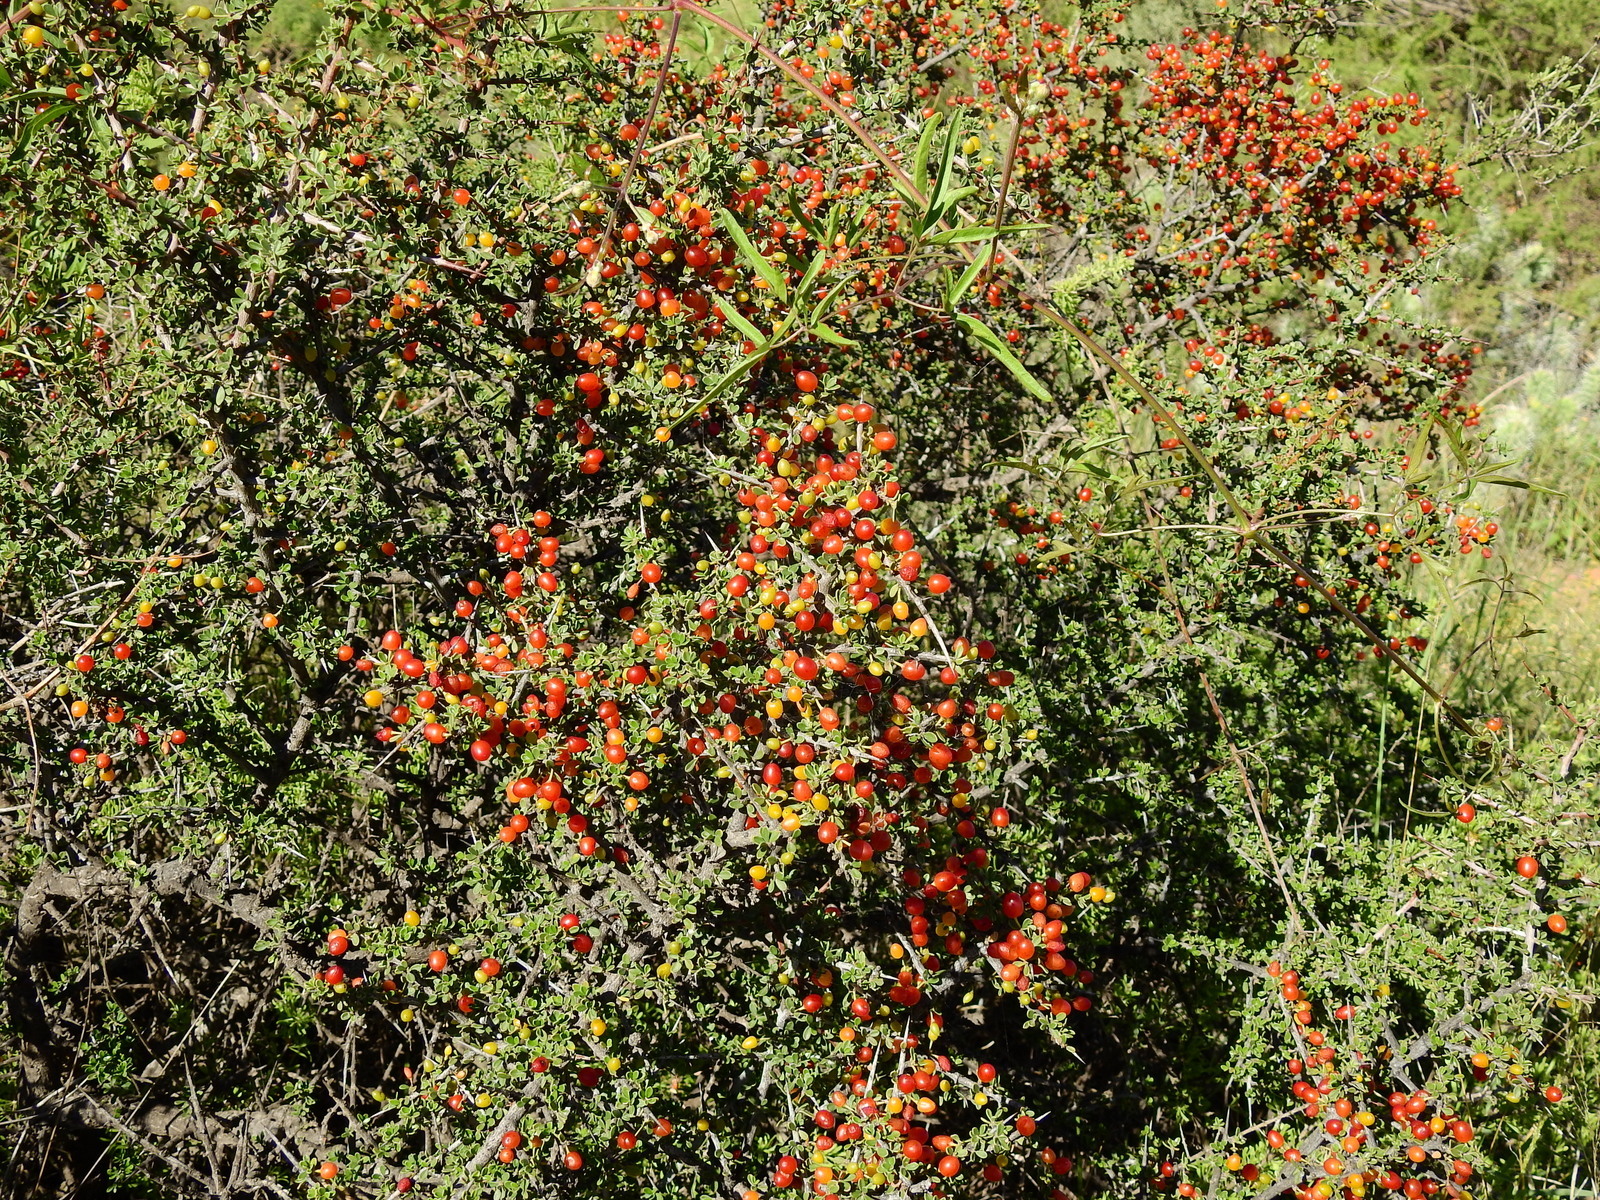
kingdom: Plantae
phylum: Tracheophyta
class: Magnoliopsida
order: Rosales
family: Rhamnaceae
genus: Condalia
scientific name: Condalia microphylla
